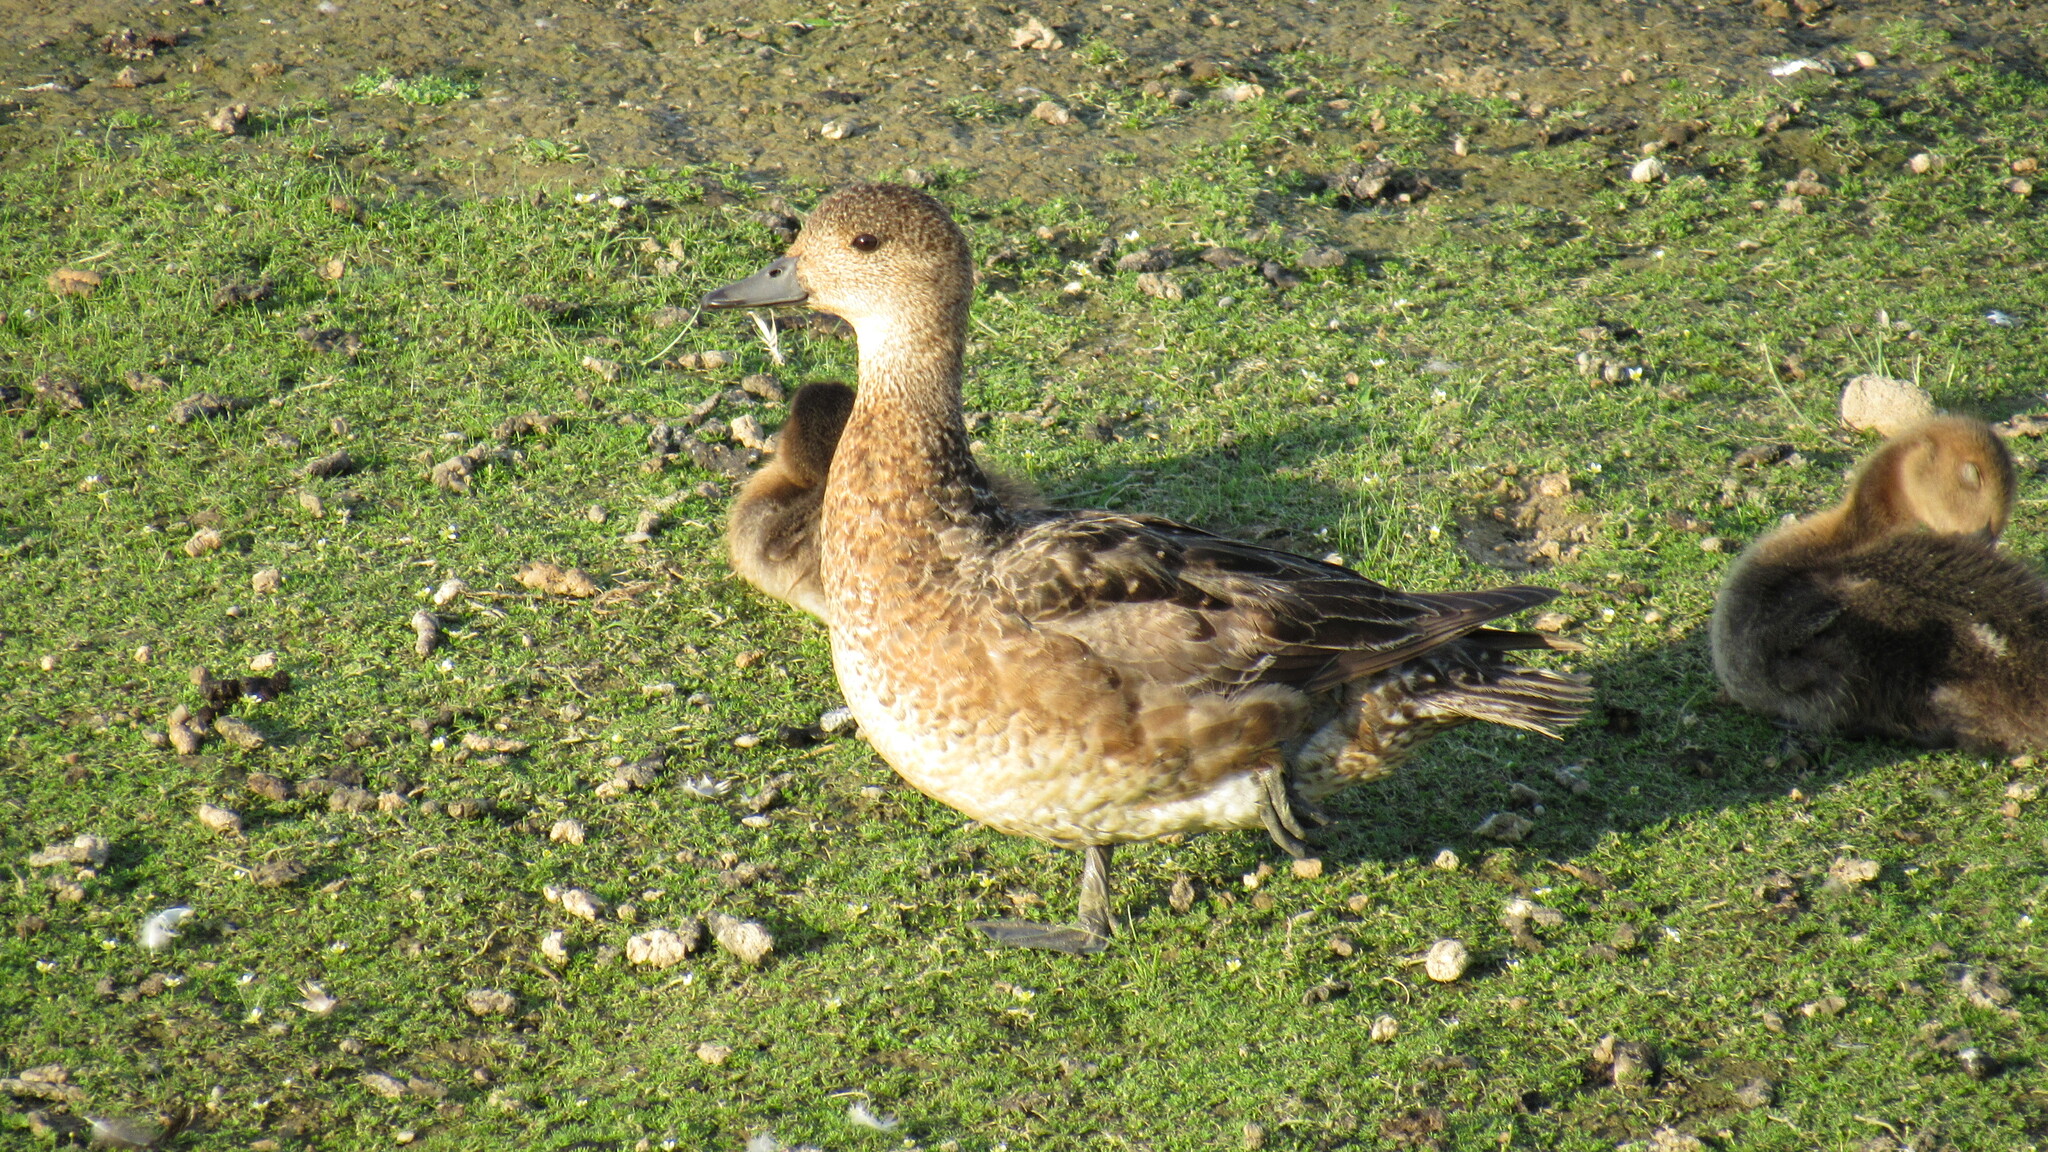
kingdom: Animalia
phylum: Chordata
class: Aves
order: Anseriformes
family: Anatidae
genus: Mareca
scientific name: Mareca penelope
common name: Eurasian wigeon
